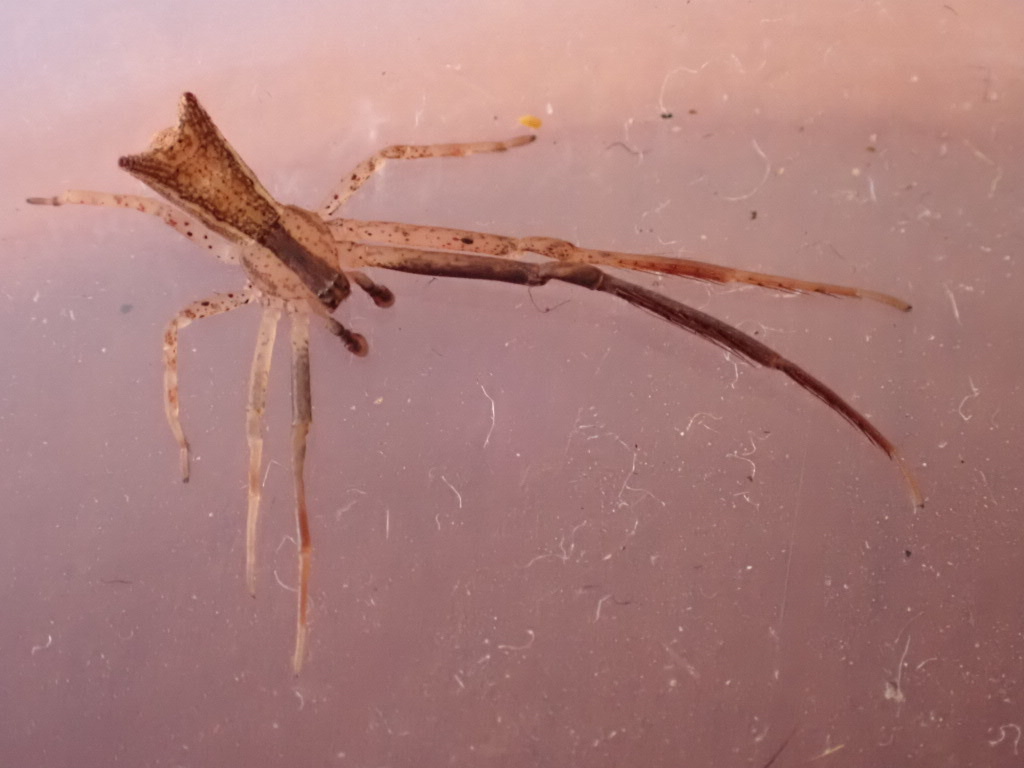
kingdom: Animalia
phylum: Arthropoda
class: Arachnida
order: Araneae
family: Thomisidae
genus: Sidymella
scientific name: Sidymella longipes
